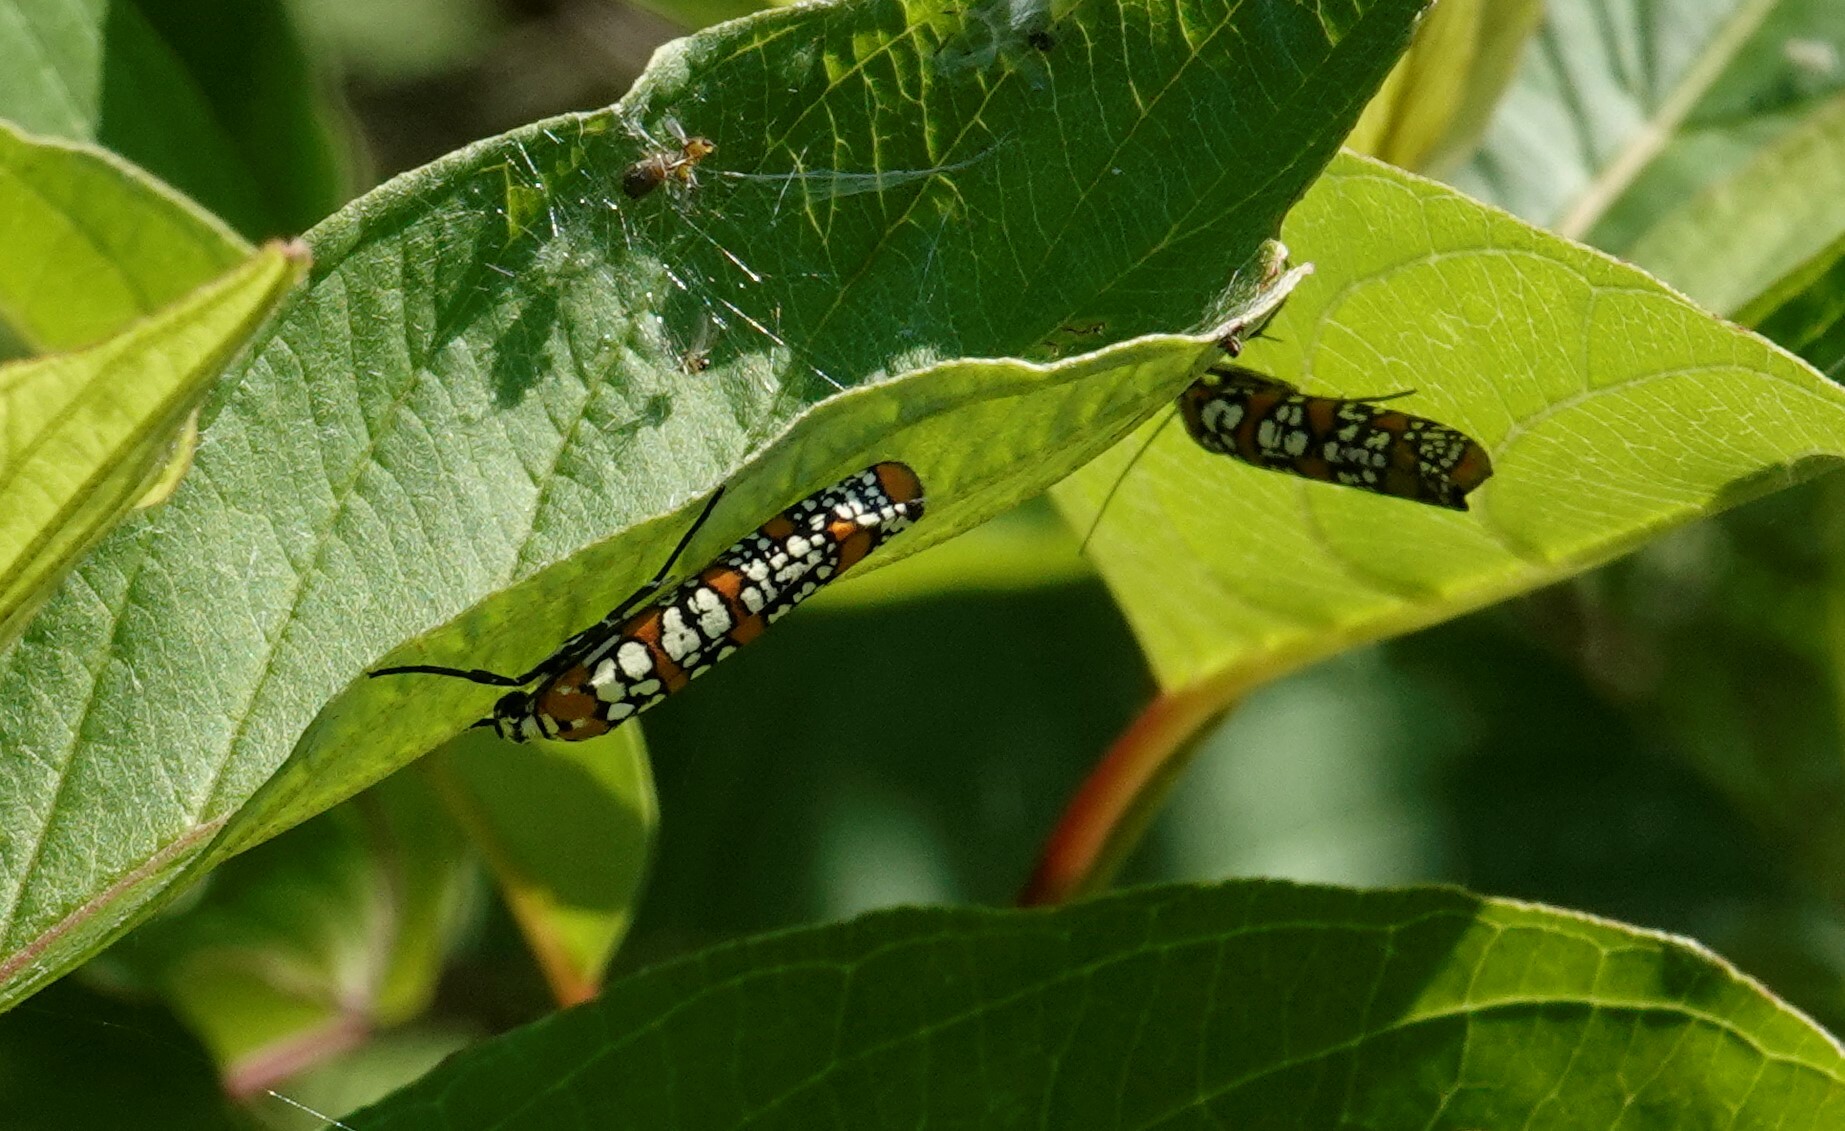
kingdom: Animalia
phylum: Arthropoda
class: Insecta
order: Lepidoptera
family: Attevidae
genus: Atteva
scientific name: Atteva punctella
